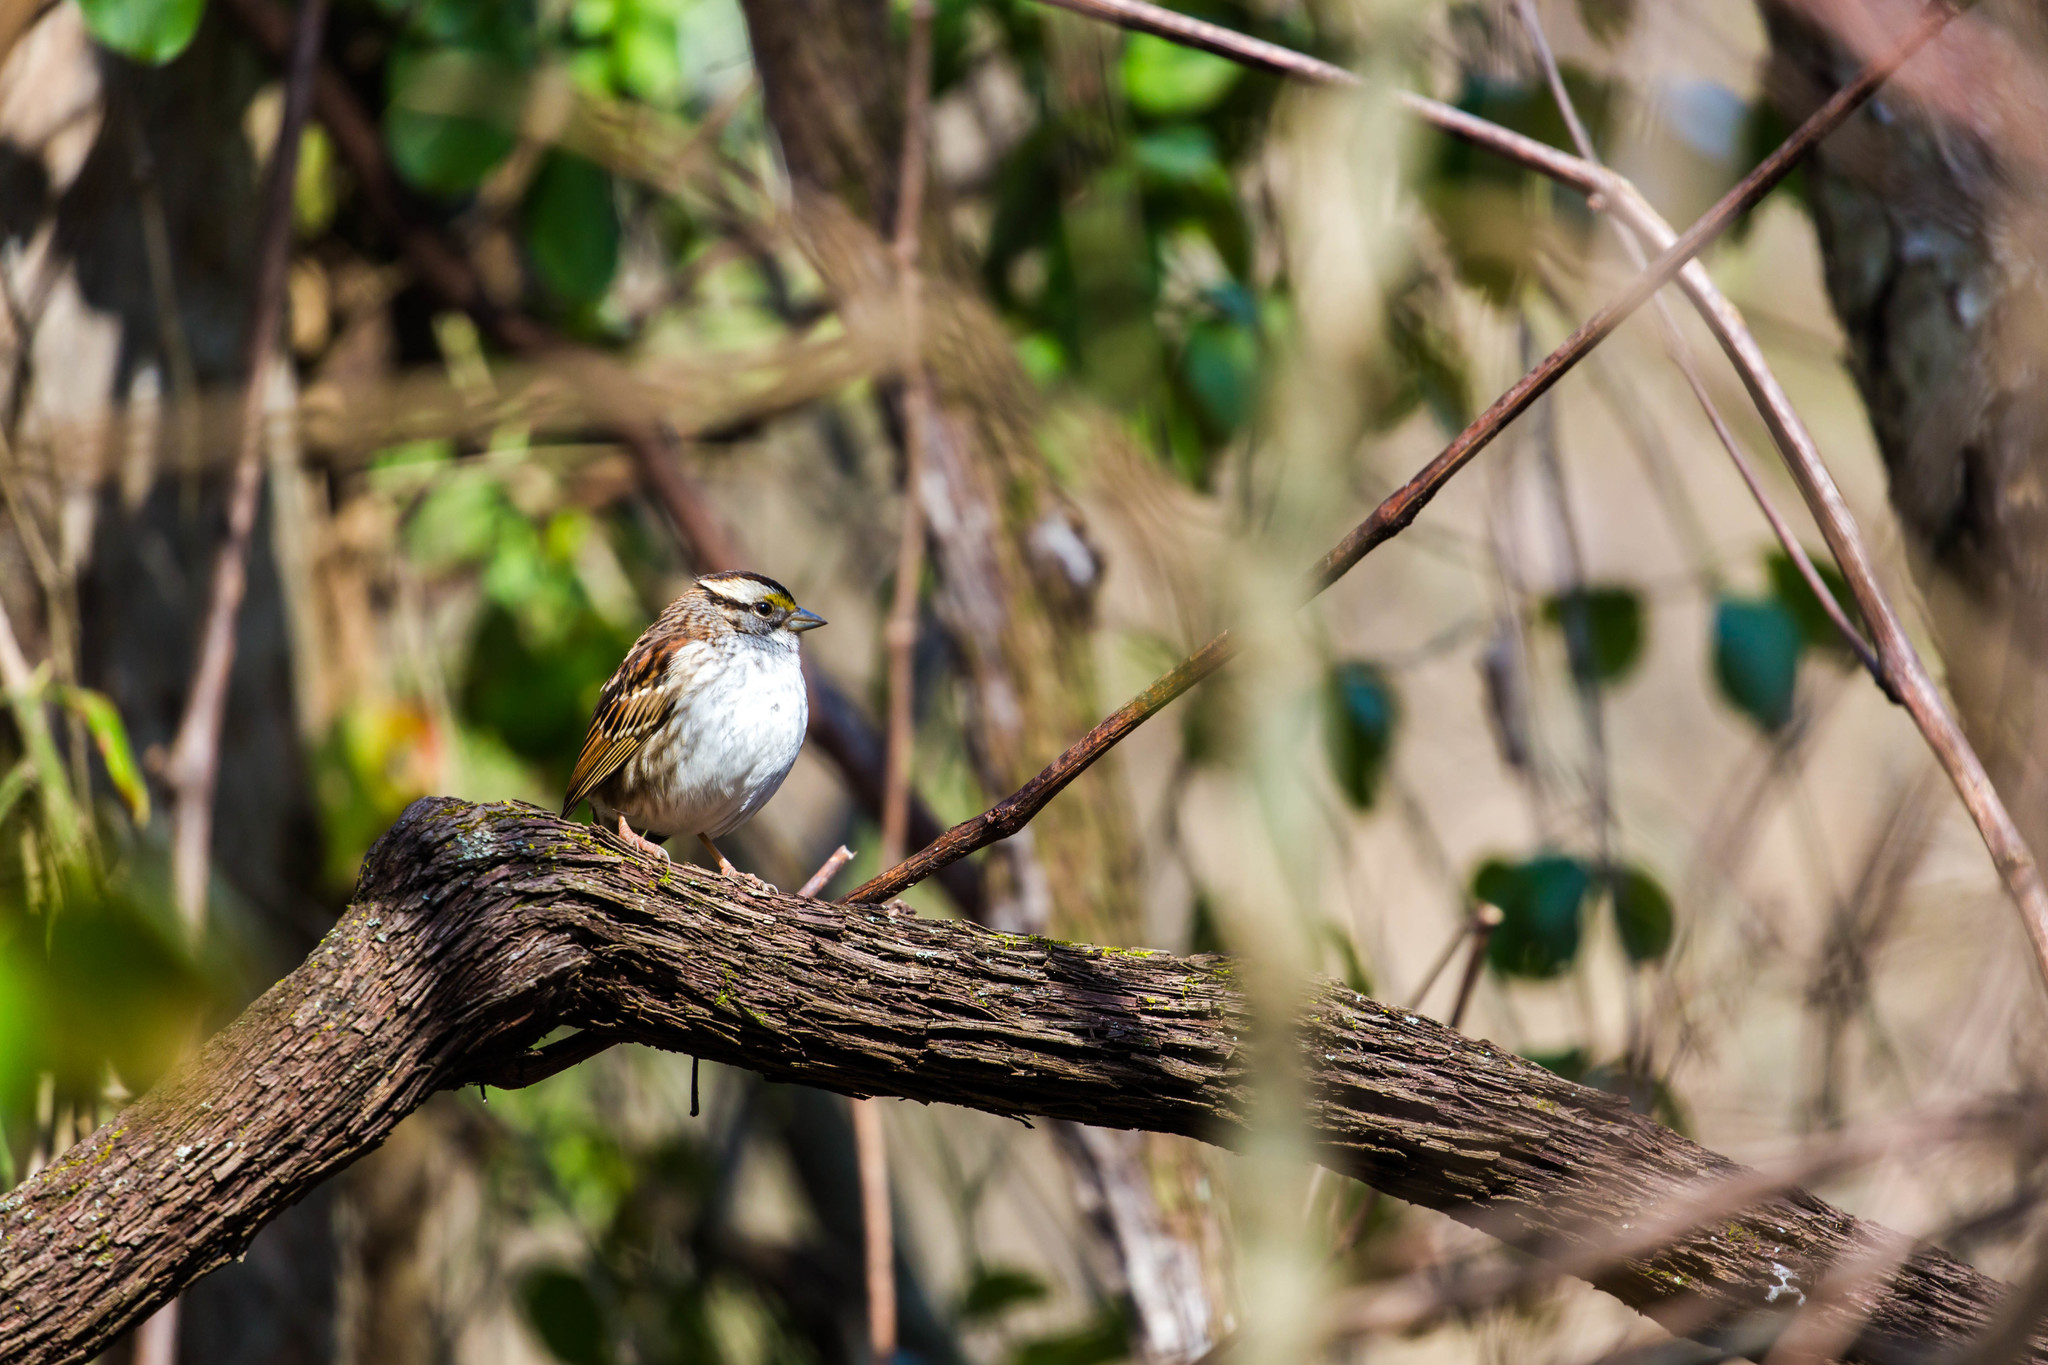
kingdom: Animalia
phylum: Chordata
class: Aves
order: Passeriformes
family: Passerellidae
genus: Zonotrichia
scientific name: Zonotrichia albicollis
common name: White-throated sparrow
